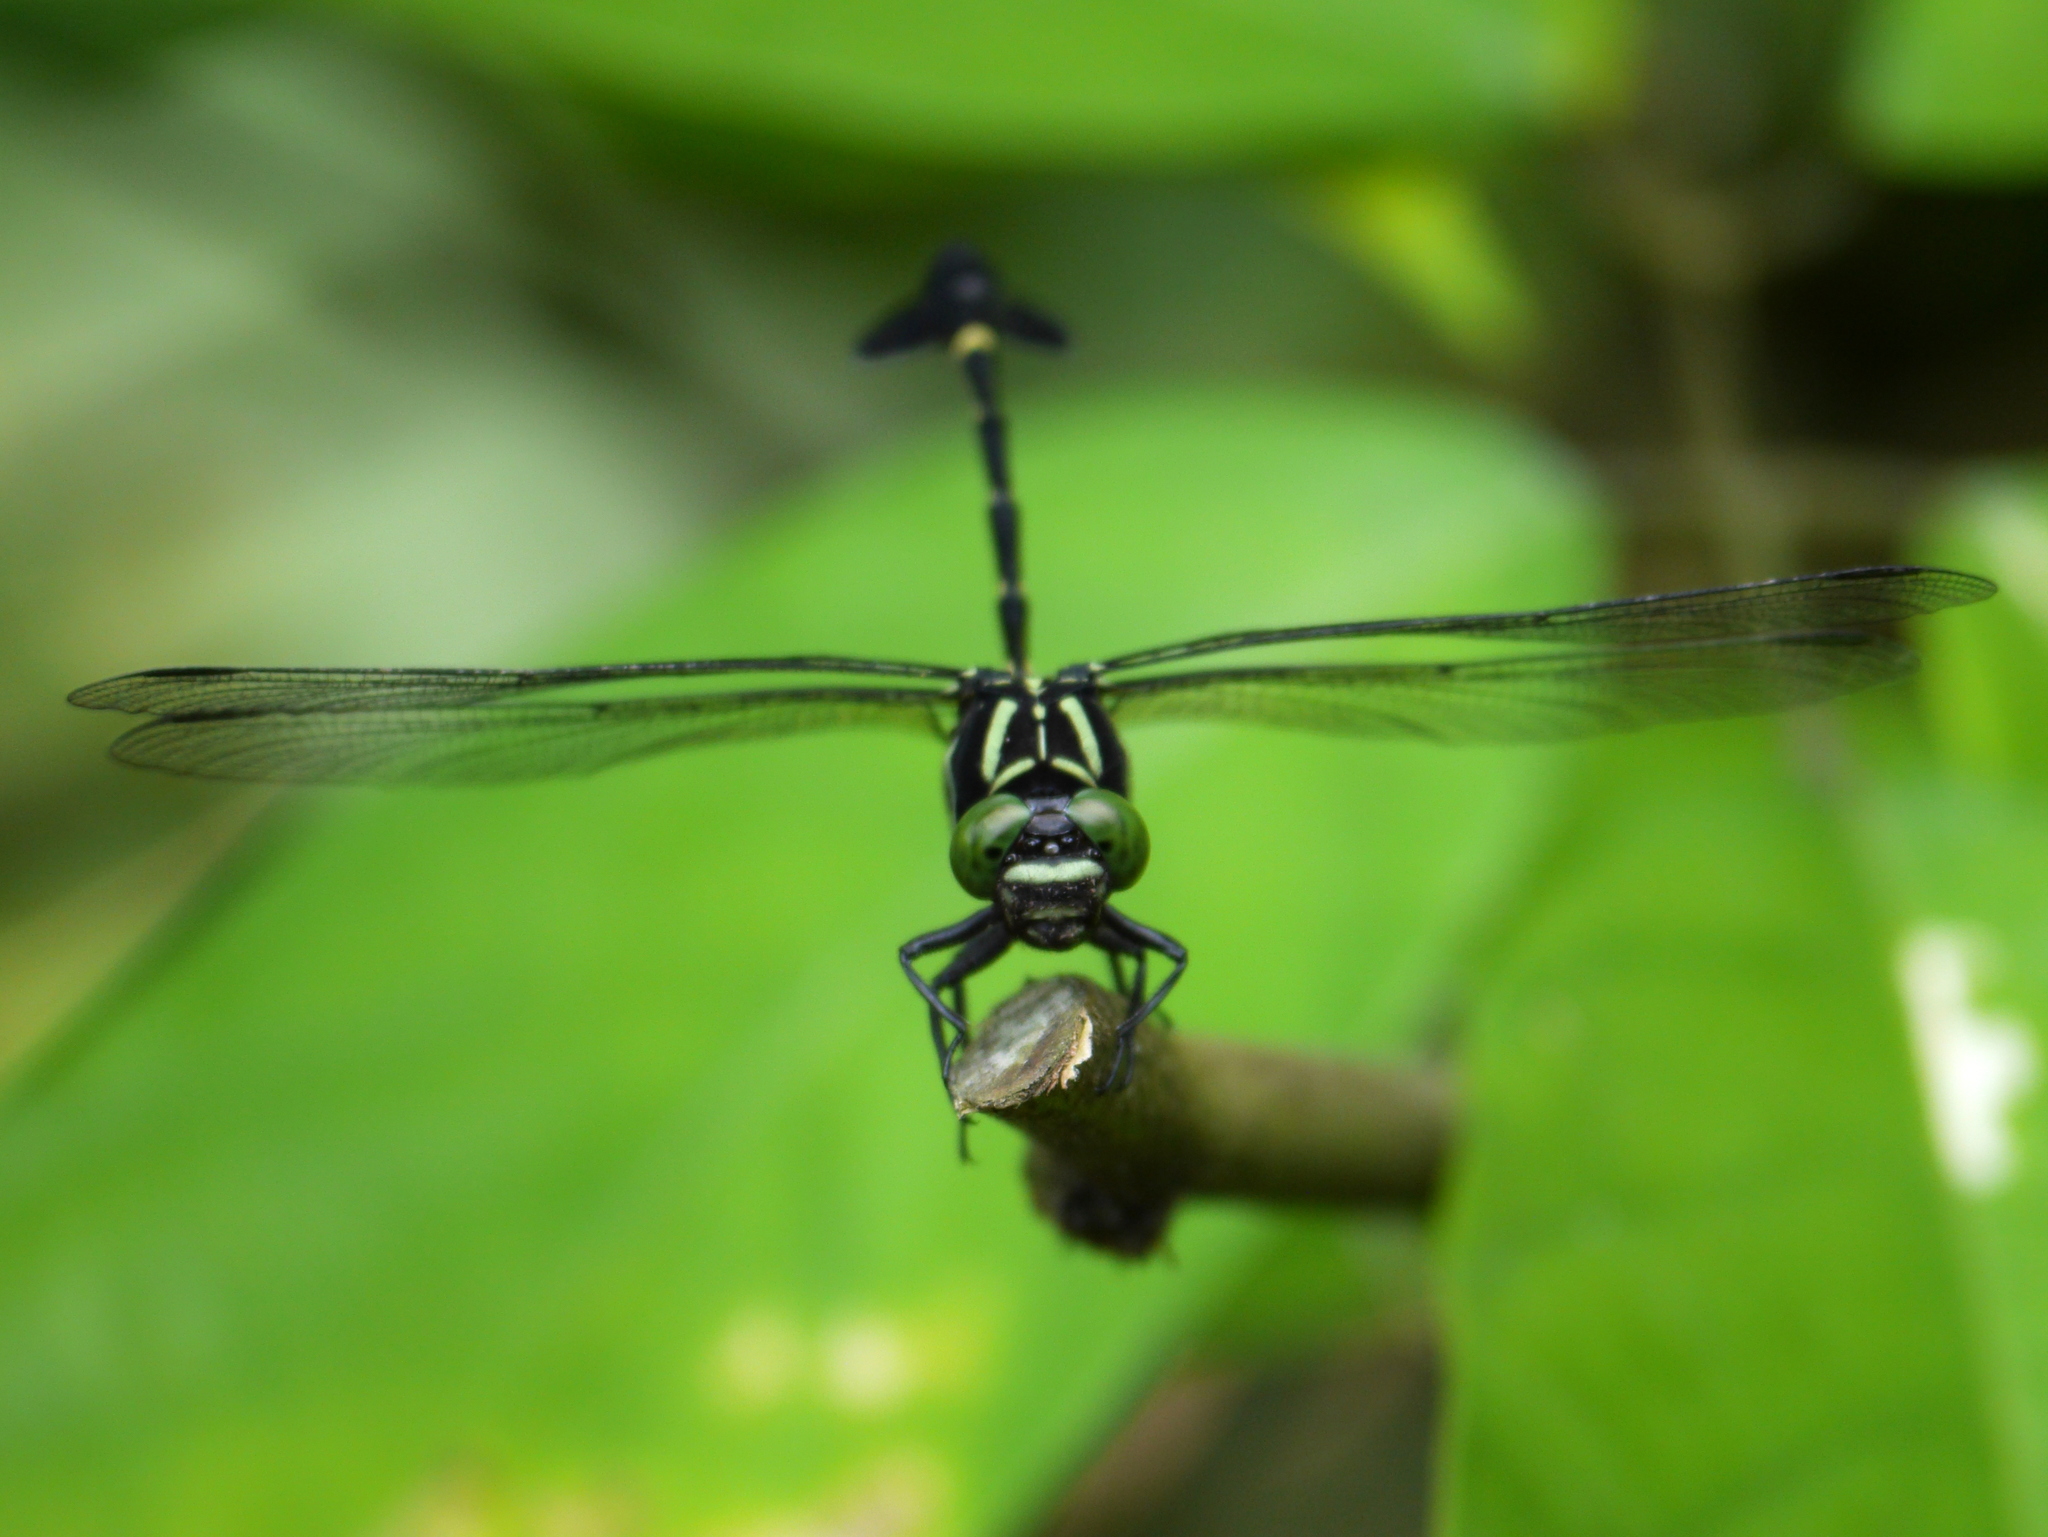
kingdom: Animalia
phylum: Arthropoda
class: Insecta
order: Odonata
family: Gomphidae
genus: Phyllogomphus
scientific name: Phyllogomphus annulus
